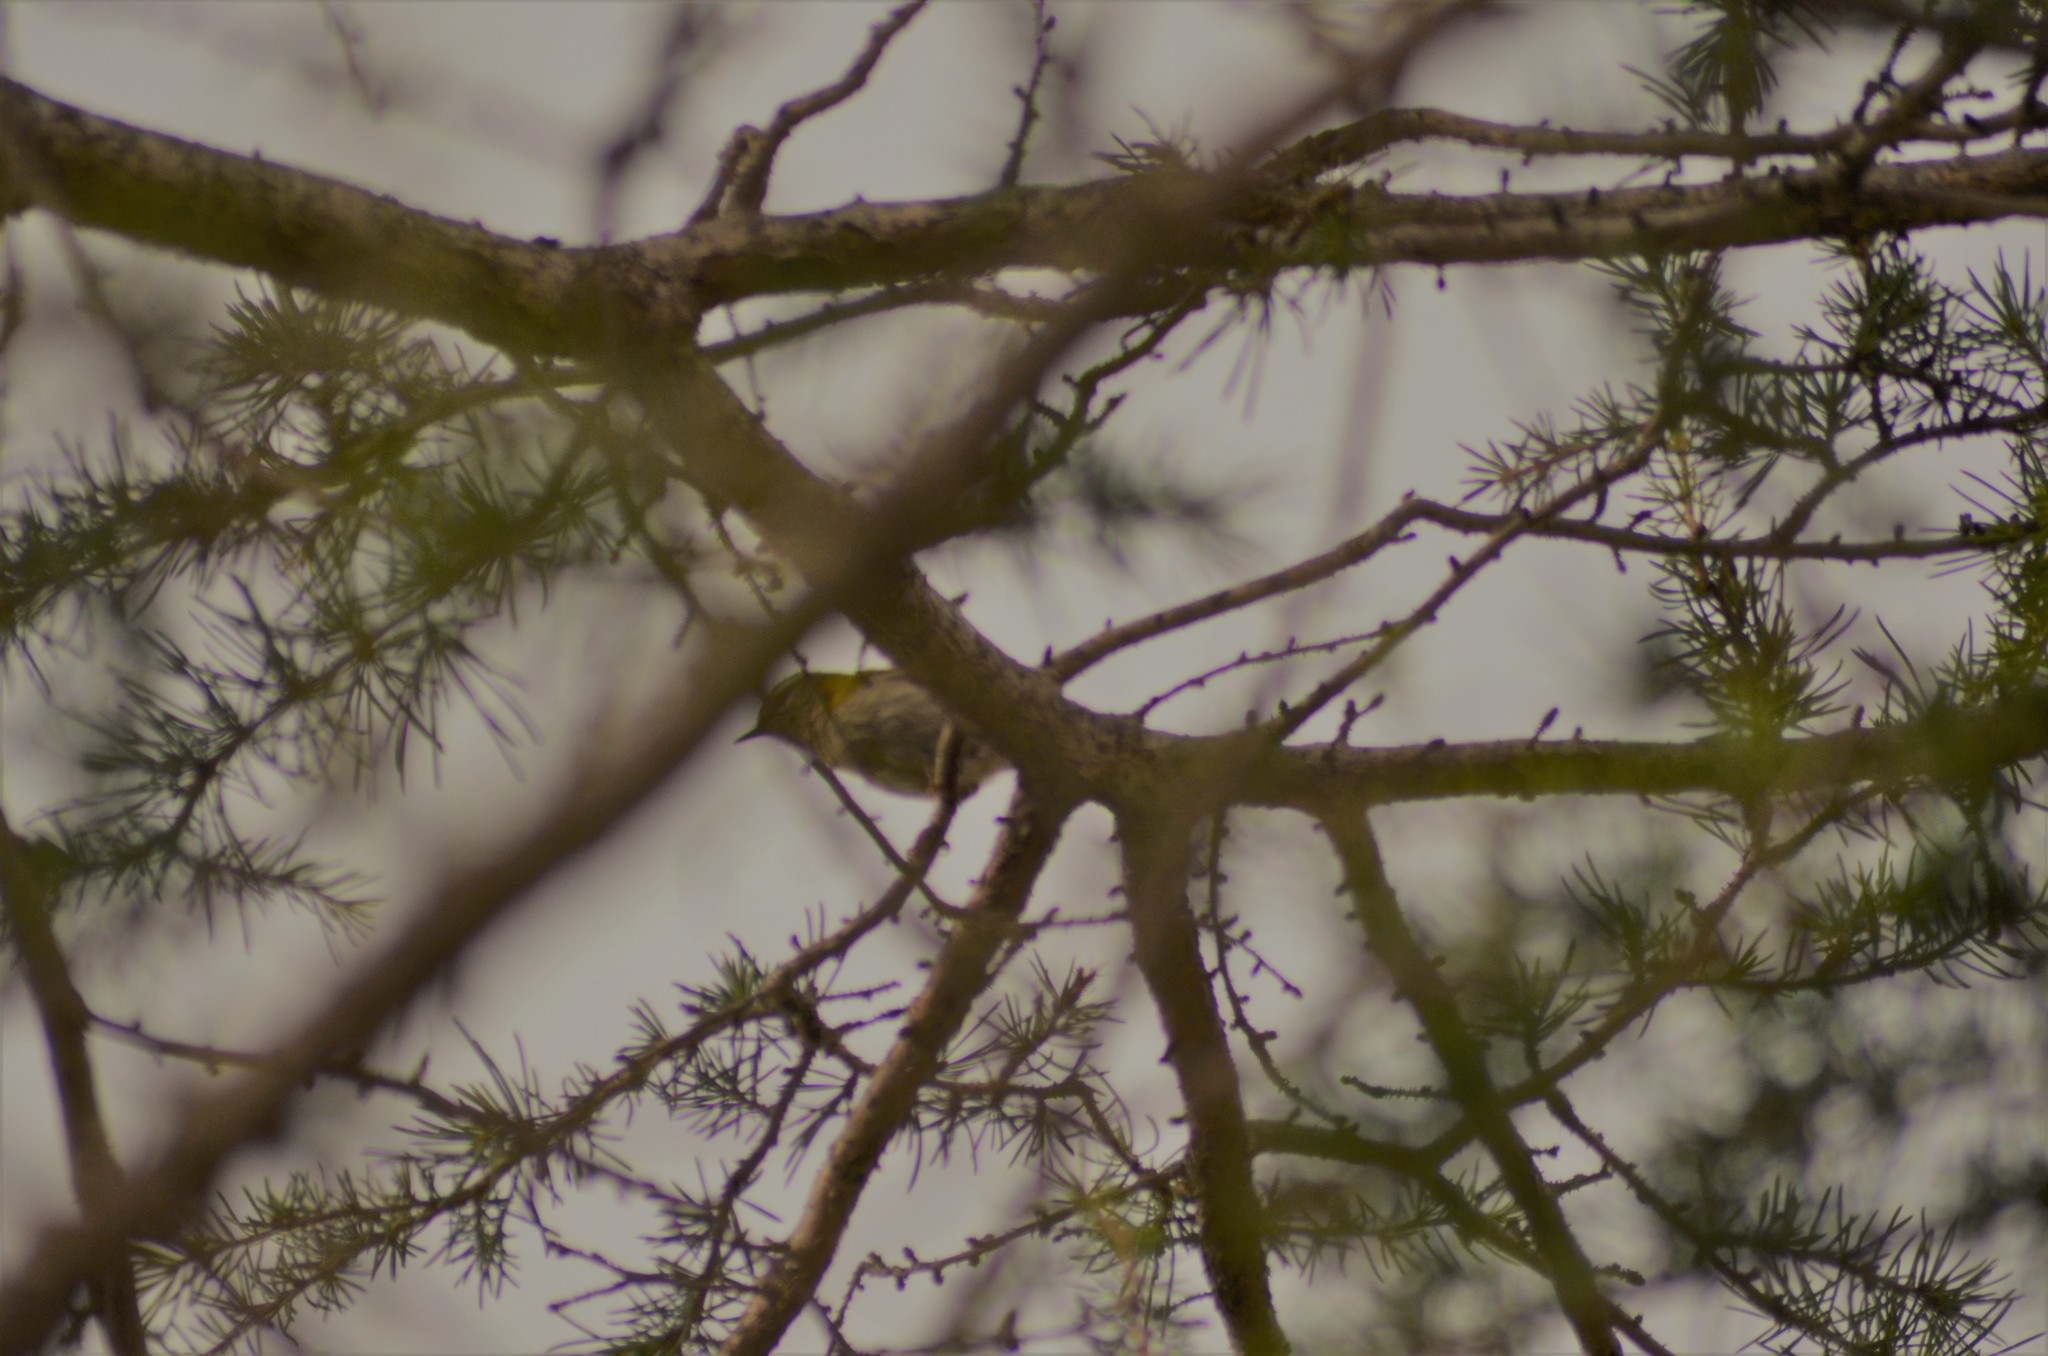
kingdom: Animalia
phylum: Chordata
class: Aves
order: Passeriformes
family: Regulidae
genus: Regulus
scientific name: Regulus ignicapilla
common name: Firecrest
